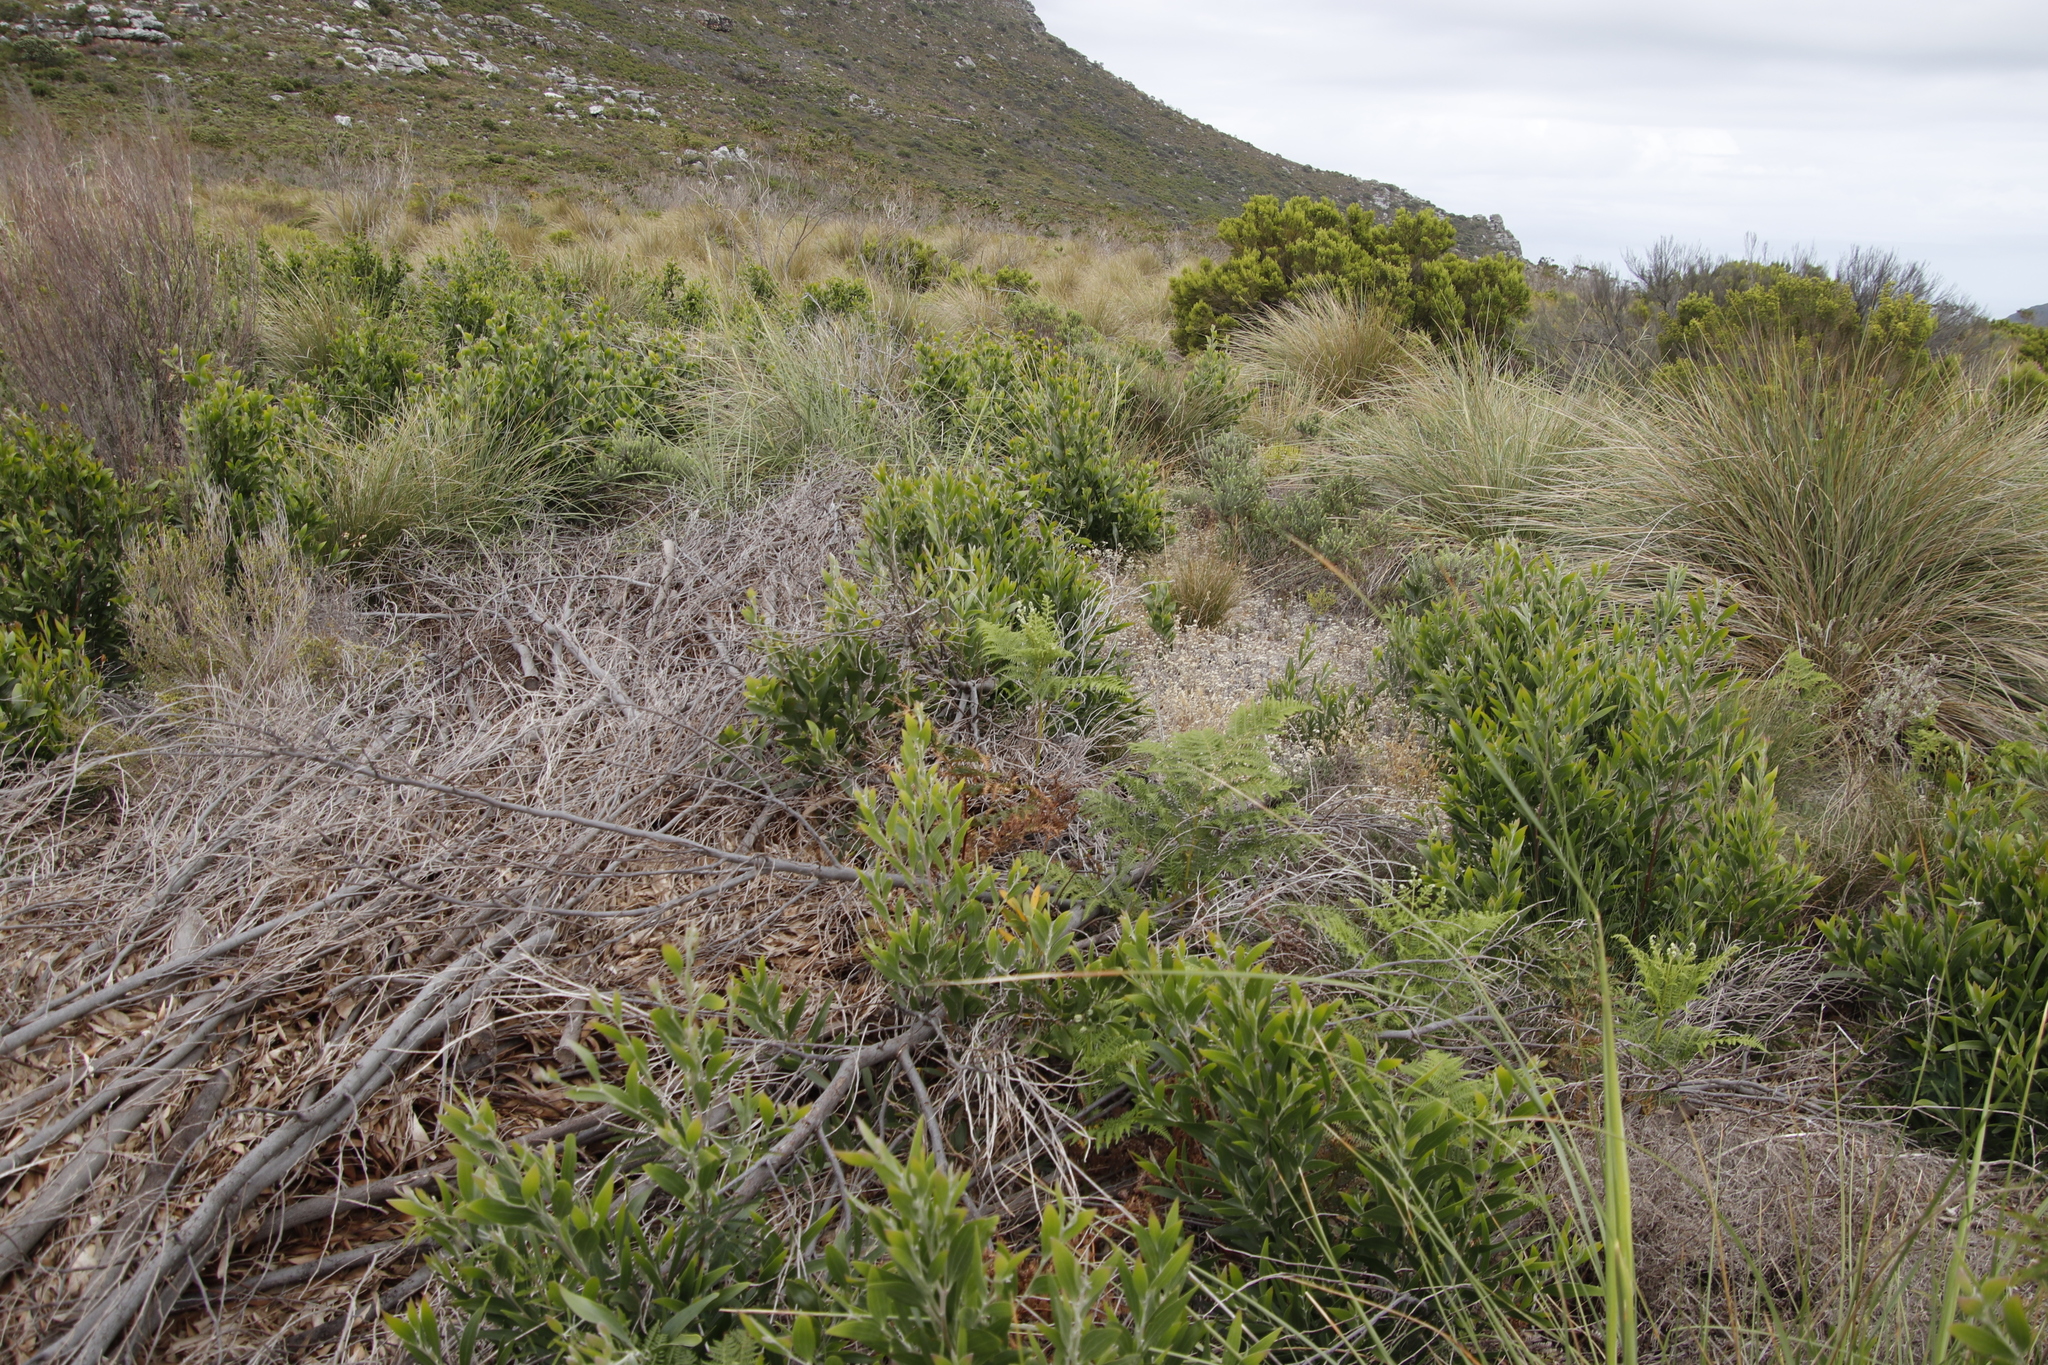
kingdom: Plantae
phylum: Tracheophyta
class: Magnoliopsida
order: Fabales
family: Fabaceae
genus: Acacia
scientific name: Acacia melanoxylon
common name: Blackwood
